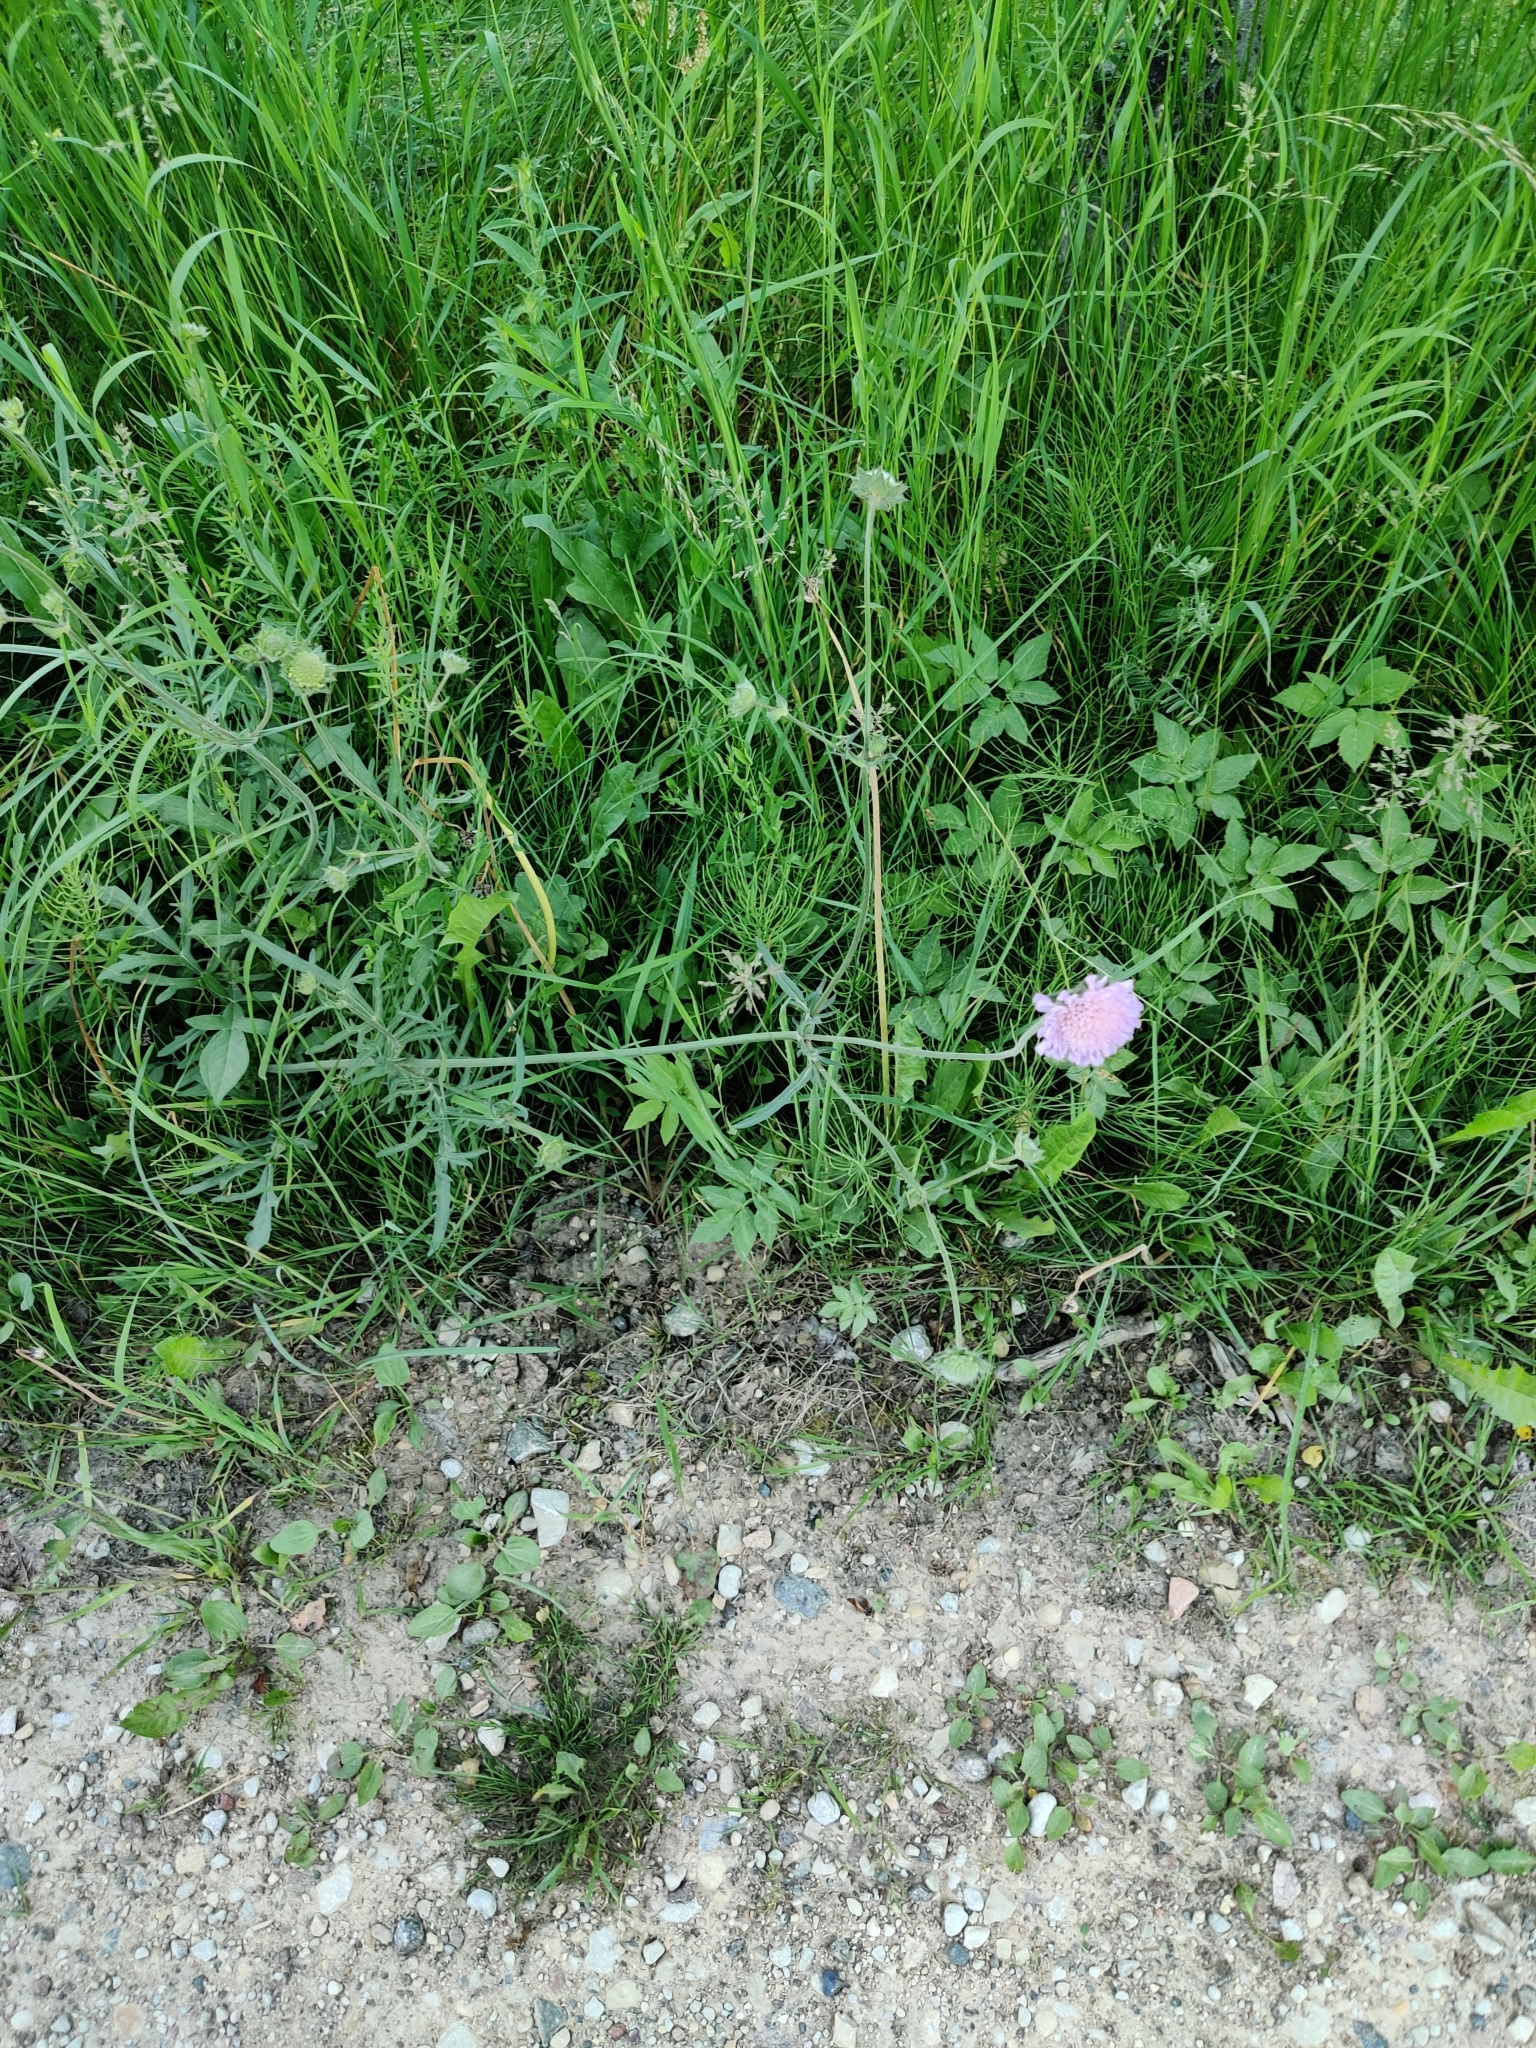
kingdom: Plantae
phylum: Tracheophyta
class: Magnoliopsida
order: Dipsacales
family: Caprifoliaceae
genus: Knautia
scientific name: Knautia arvensis
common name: Field scabiosa
